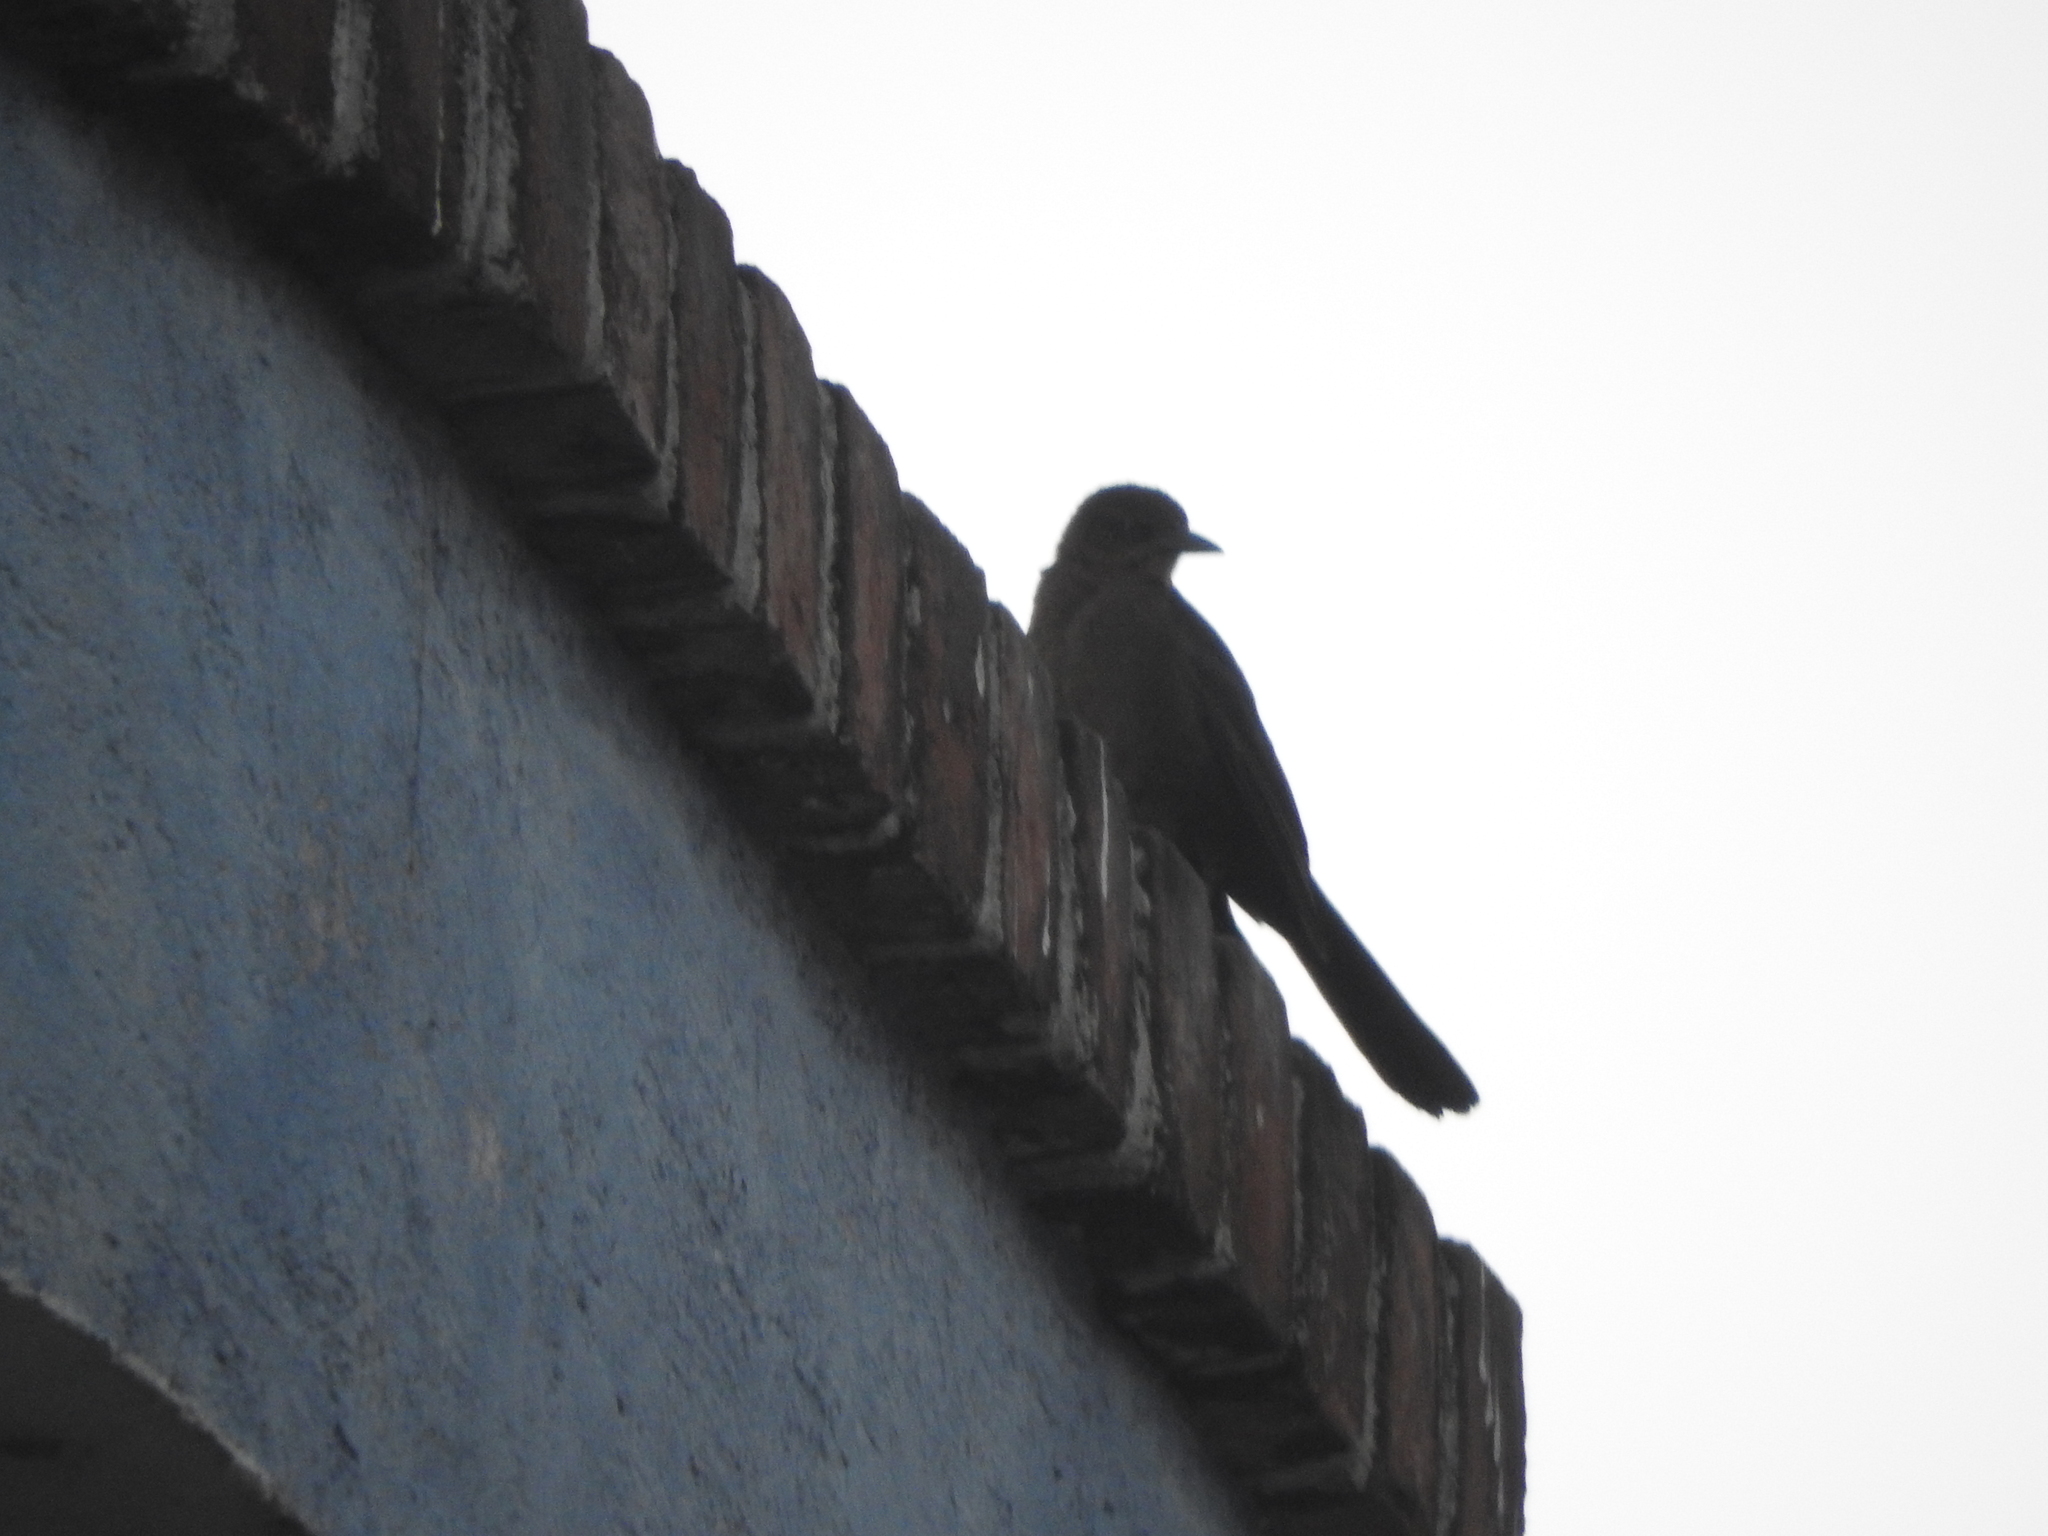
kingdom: Animalia
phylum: Chordata
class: Aves
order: Passeriformes
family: Icteridae
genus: Quiscalus
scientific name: Quiscalus mexicanus
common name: Great-tailed grackle
